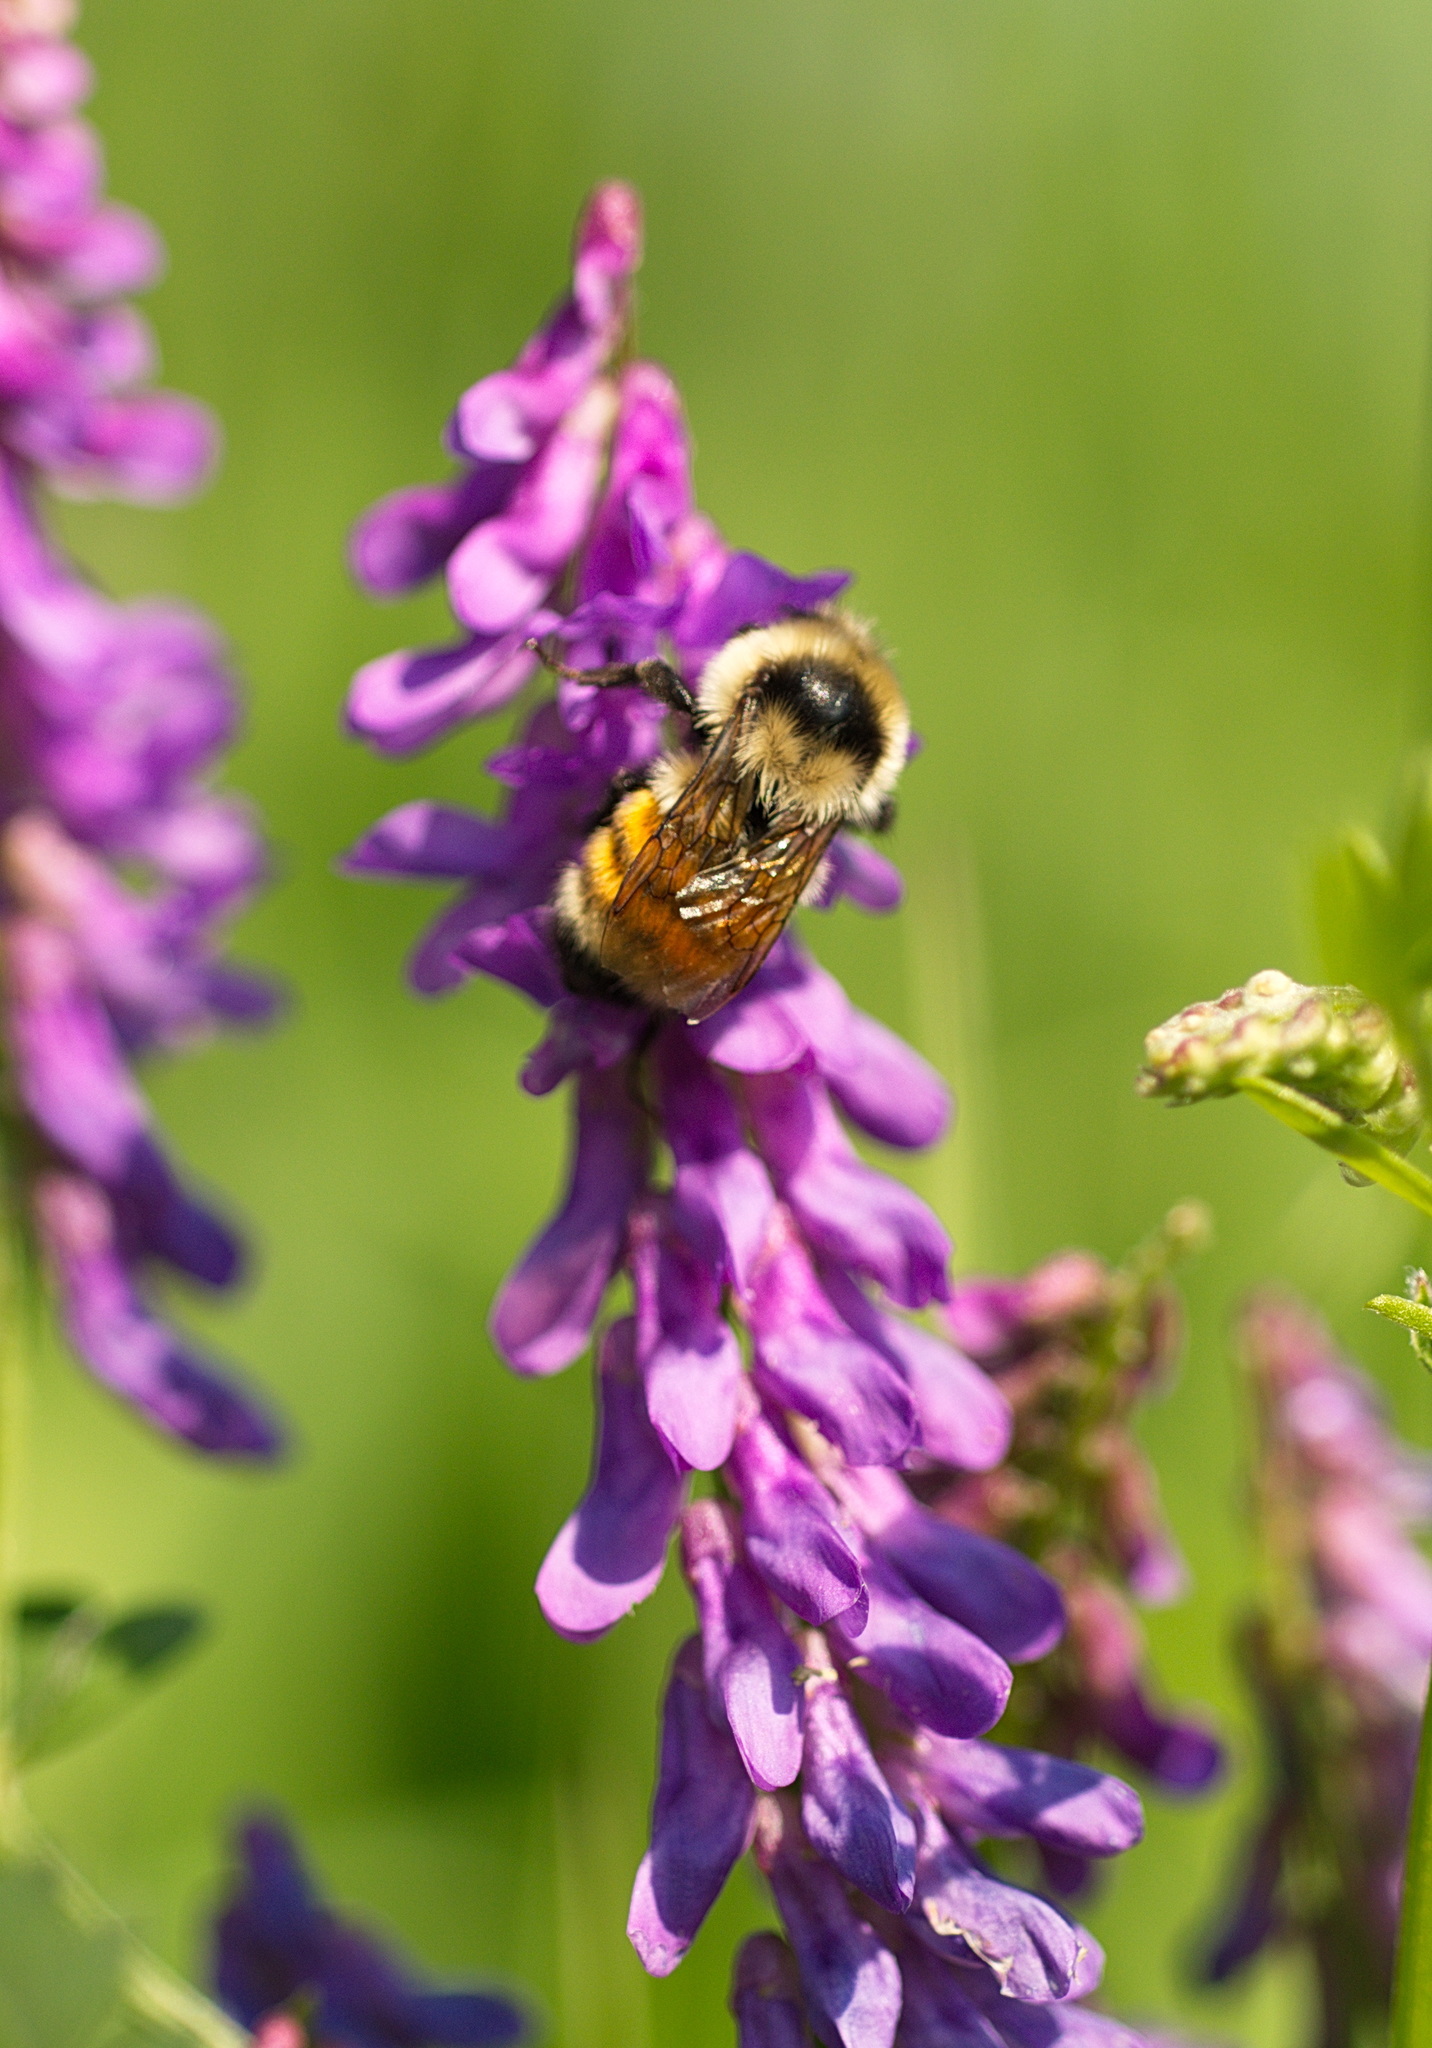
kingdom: Animalia
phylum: Arthropoda
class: Insecta
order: Hymenoptera
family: Apidae
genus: Bombus
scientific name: Bombus huntii
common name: Hunt bumble bee
